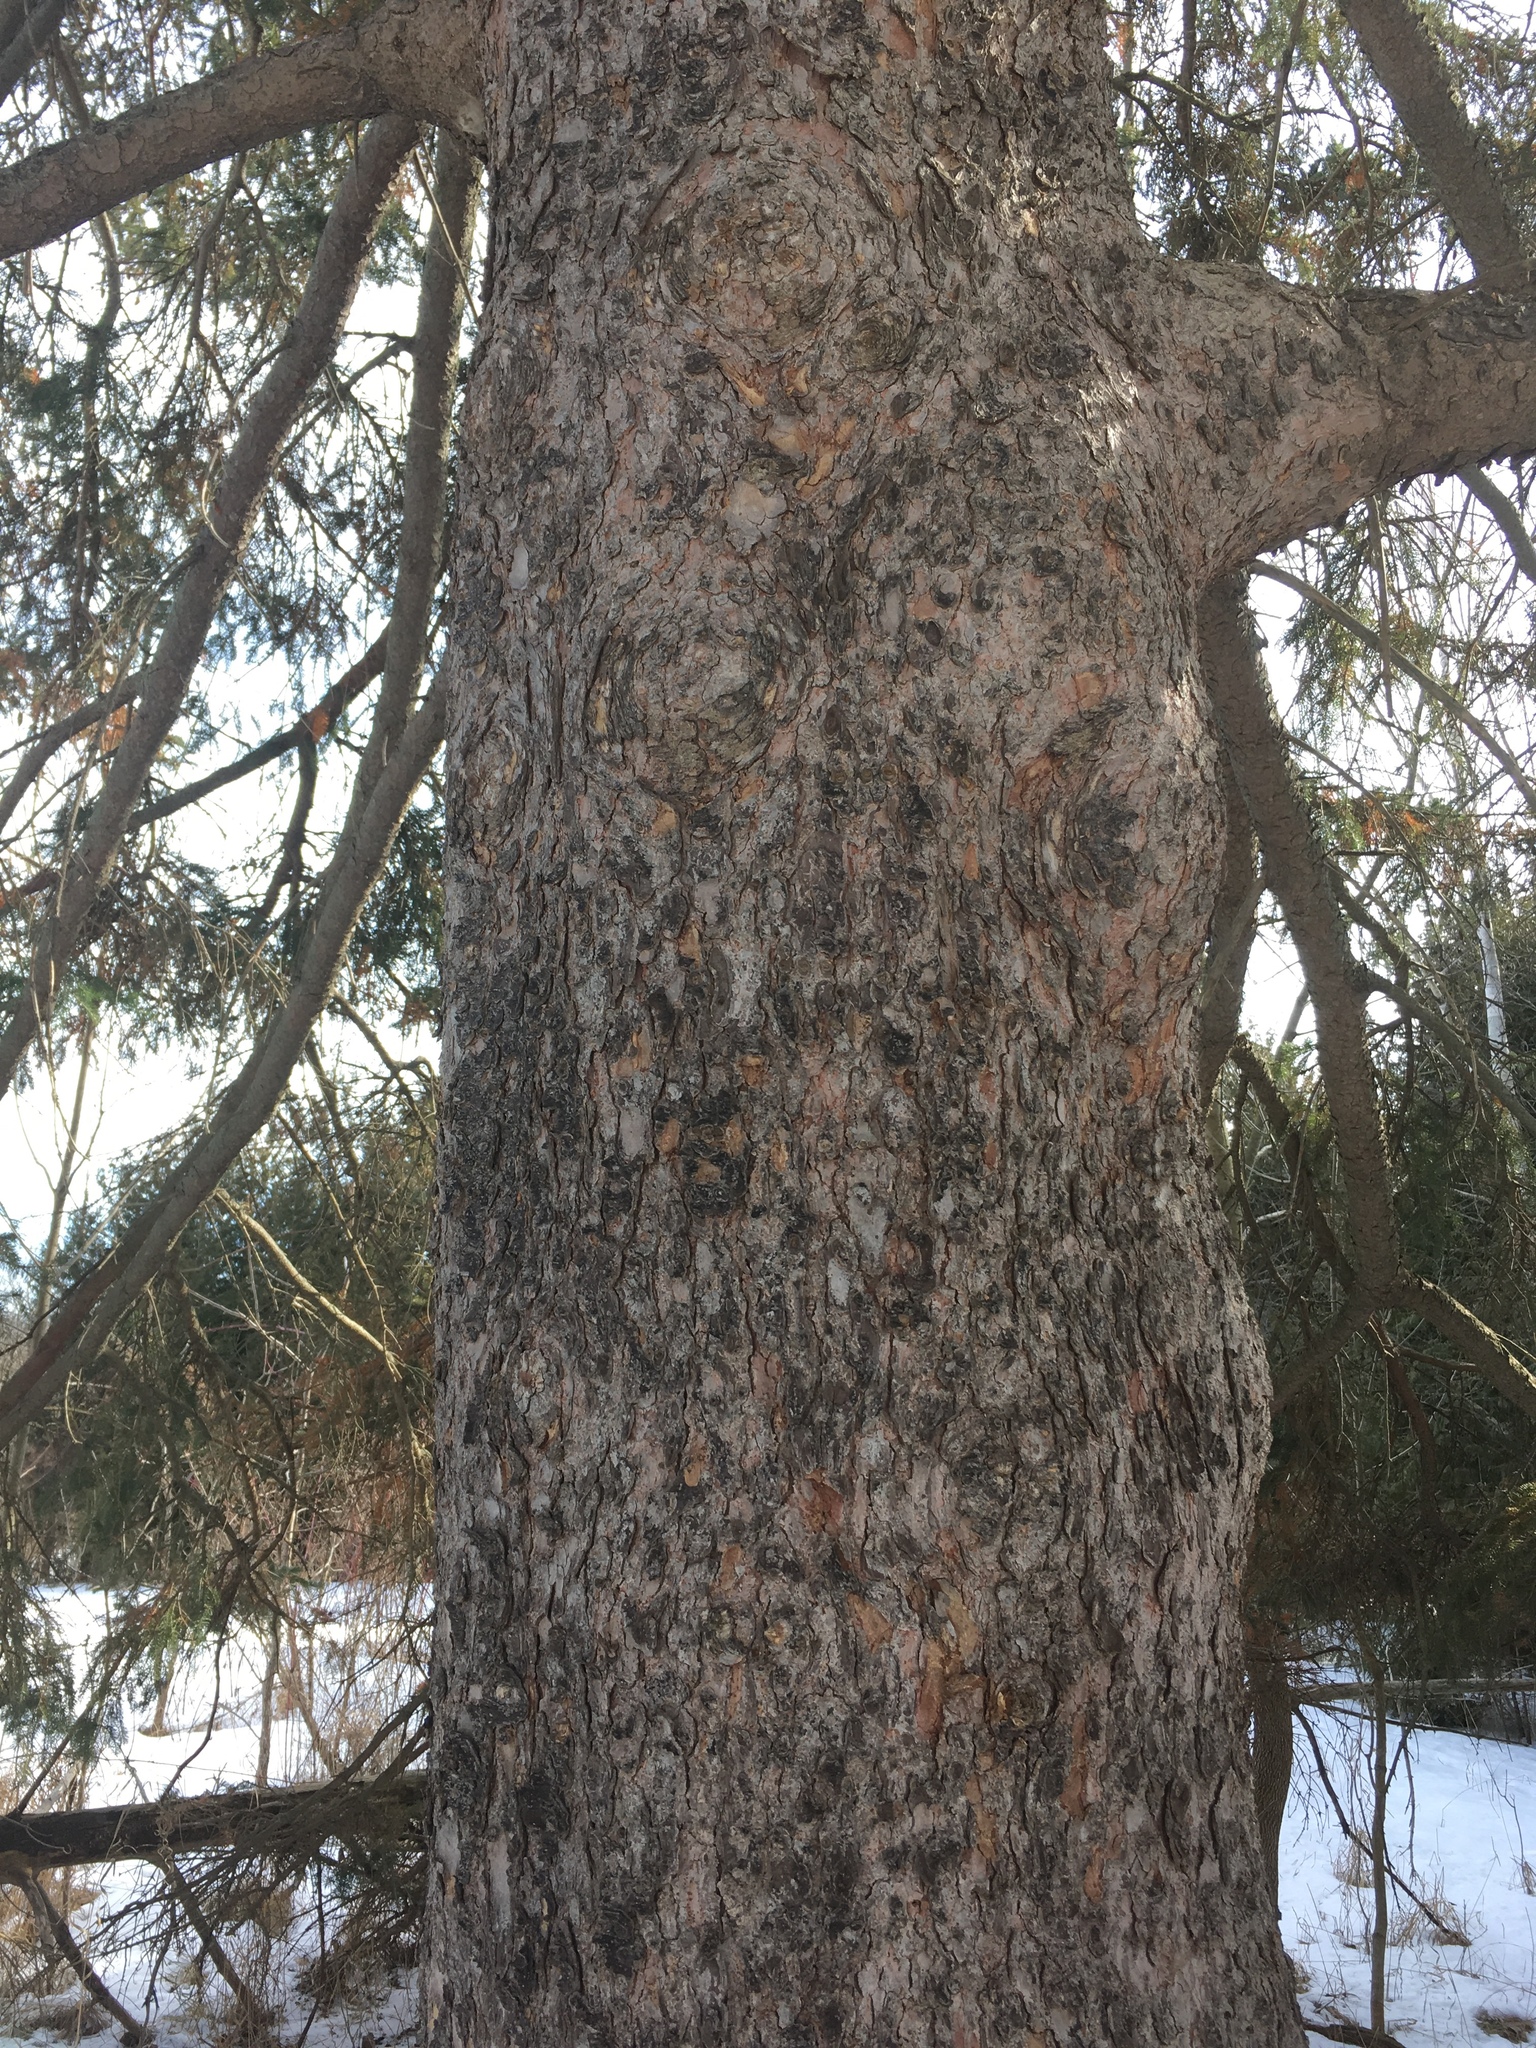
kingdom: Plantae
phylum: Tracheophyta
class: Pinopsida
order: Pinales
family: Pinaceae
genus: Picea
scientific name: Picea glauca
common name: White spruce
